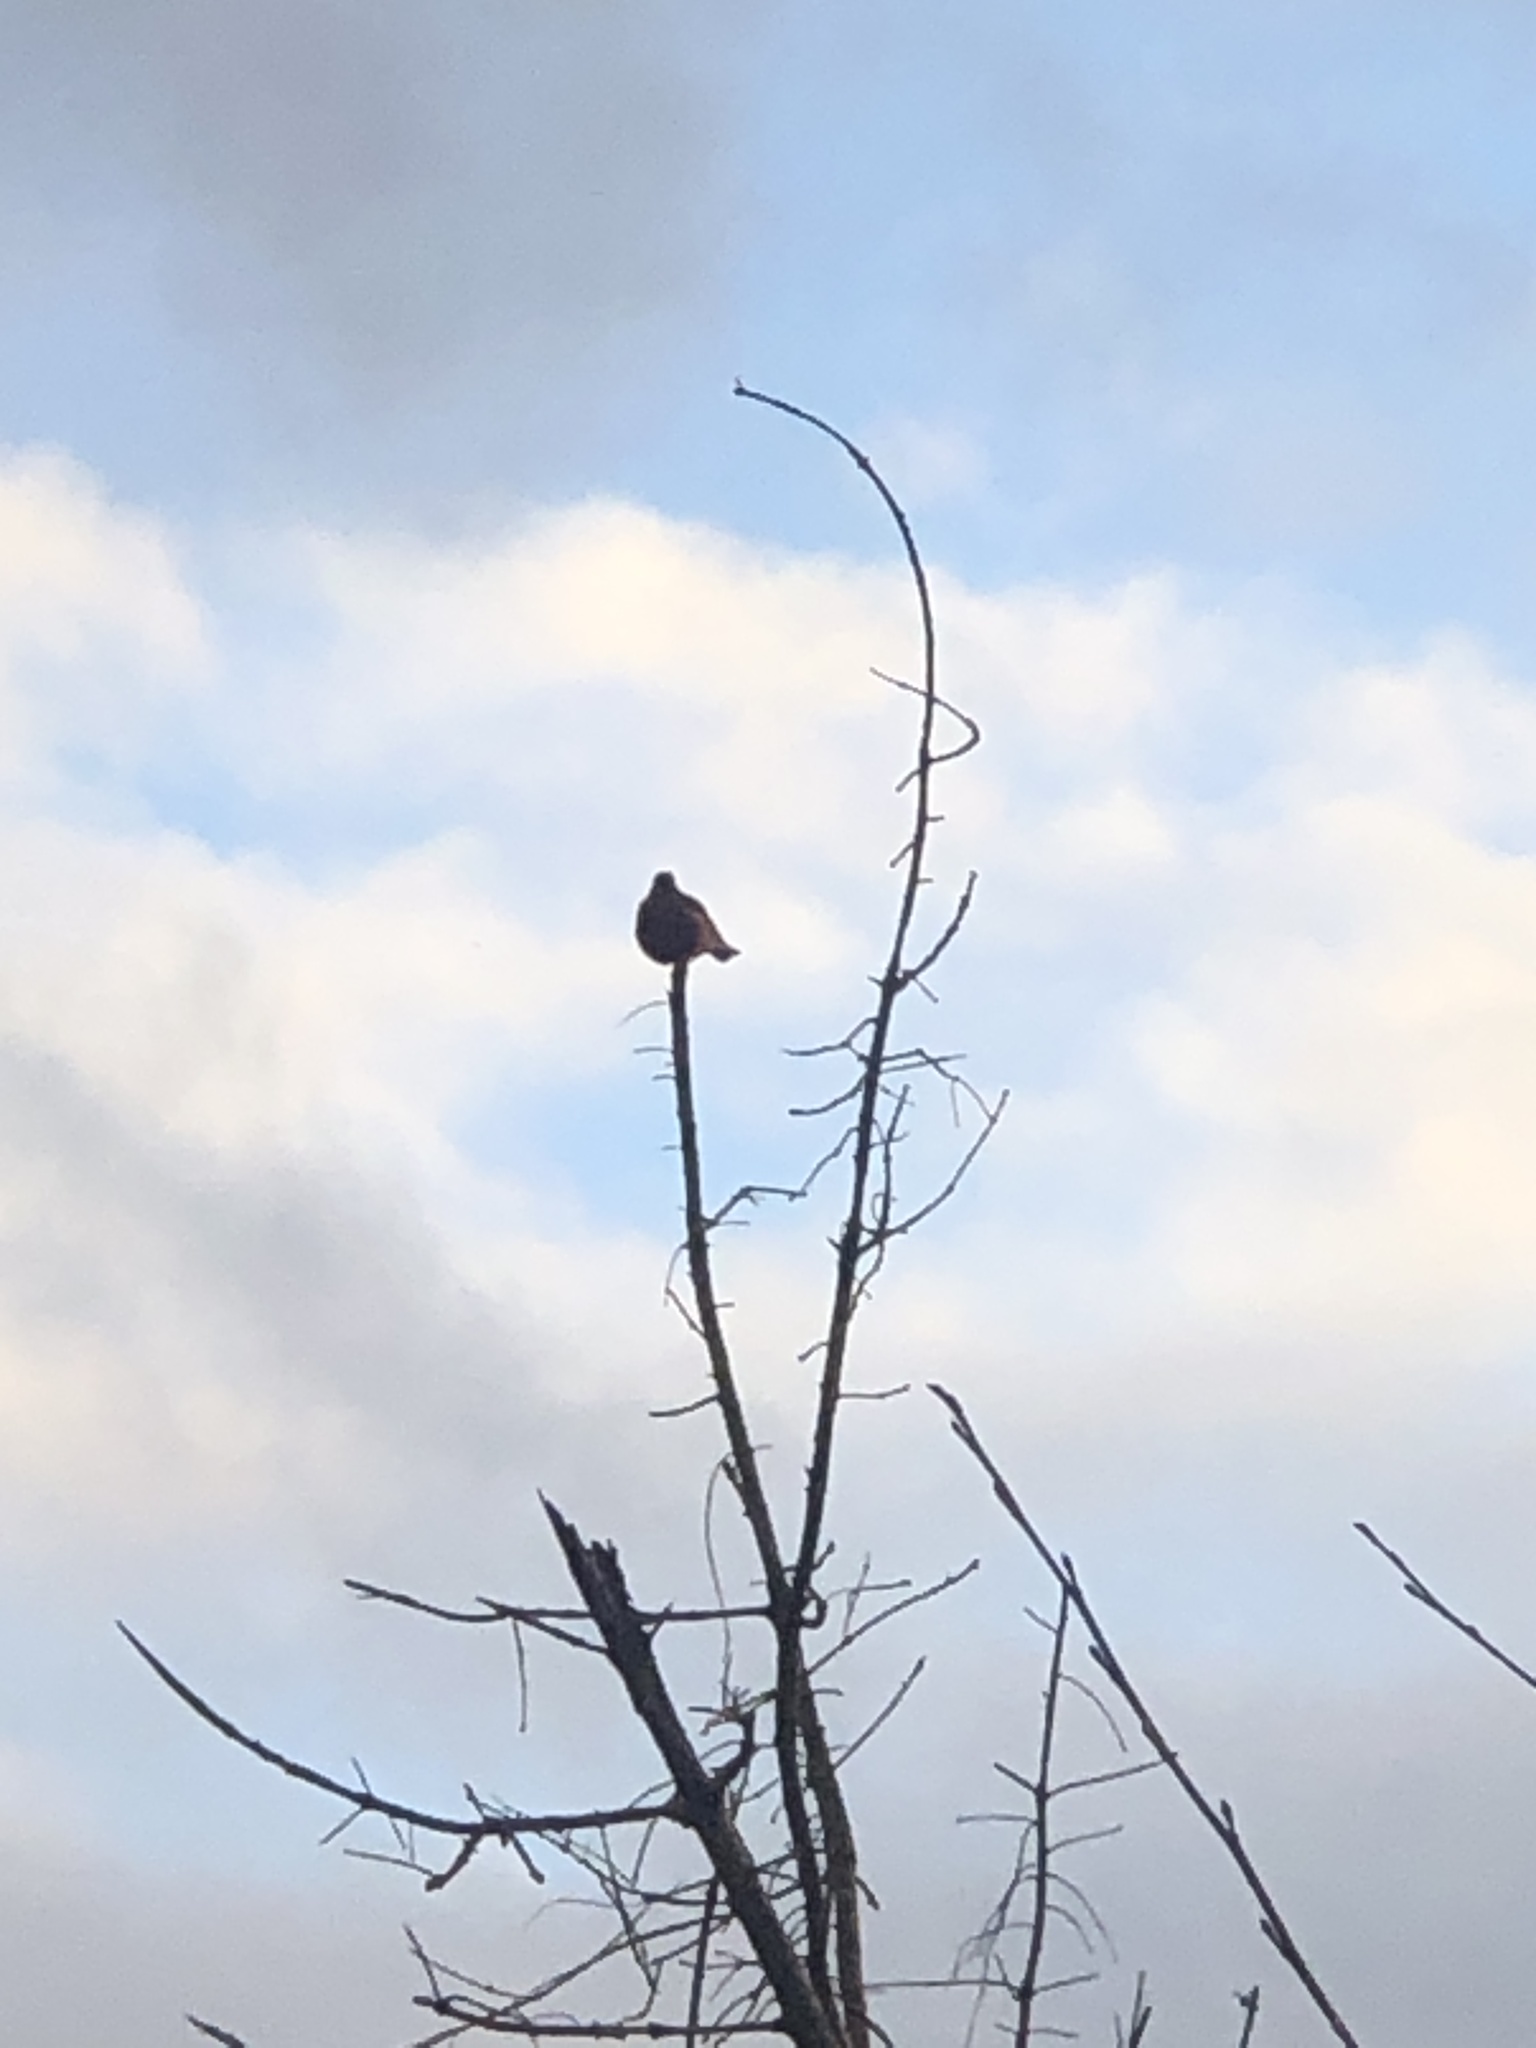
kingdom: Animalia
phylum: Chordata
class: Aves
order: Passeriformes
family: Turdidae
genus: Turdus
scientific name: Turdus migratorius
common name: American robin
